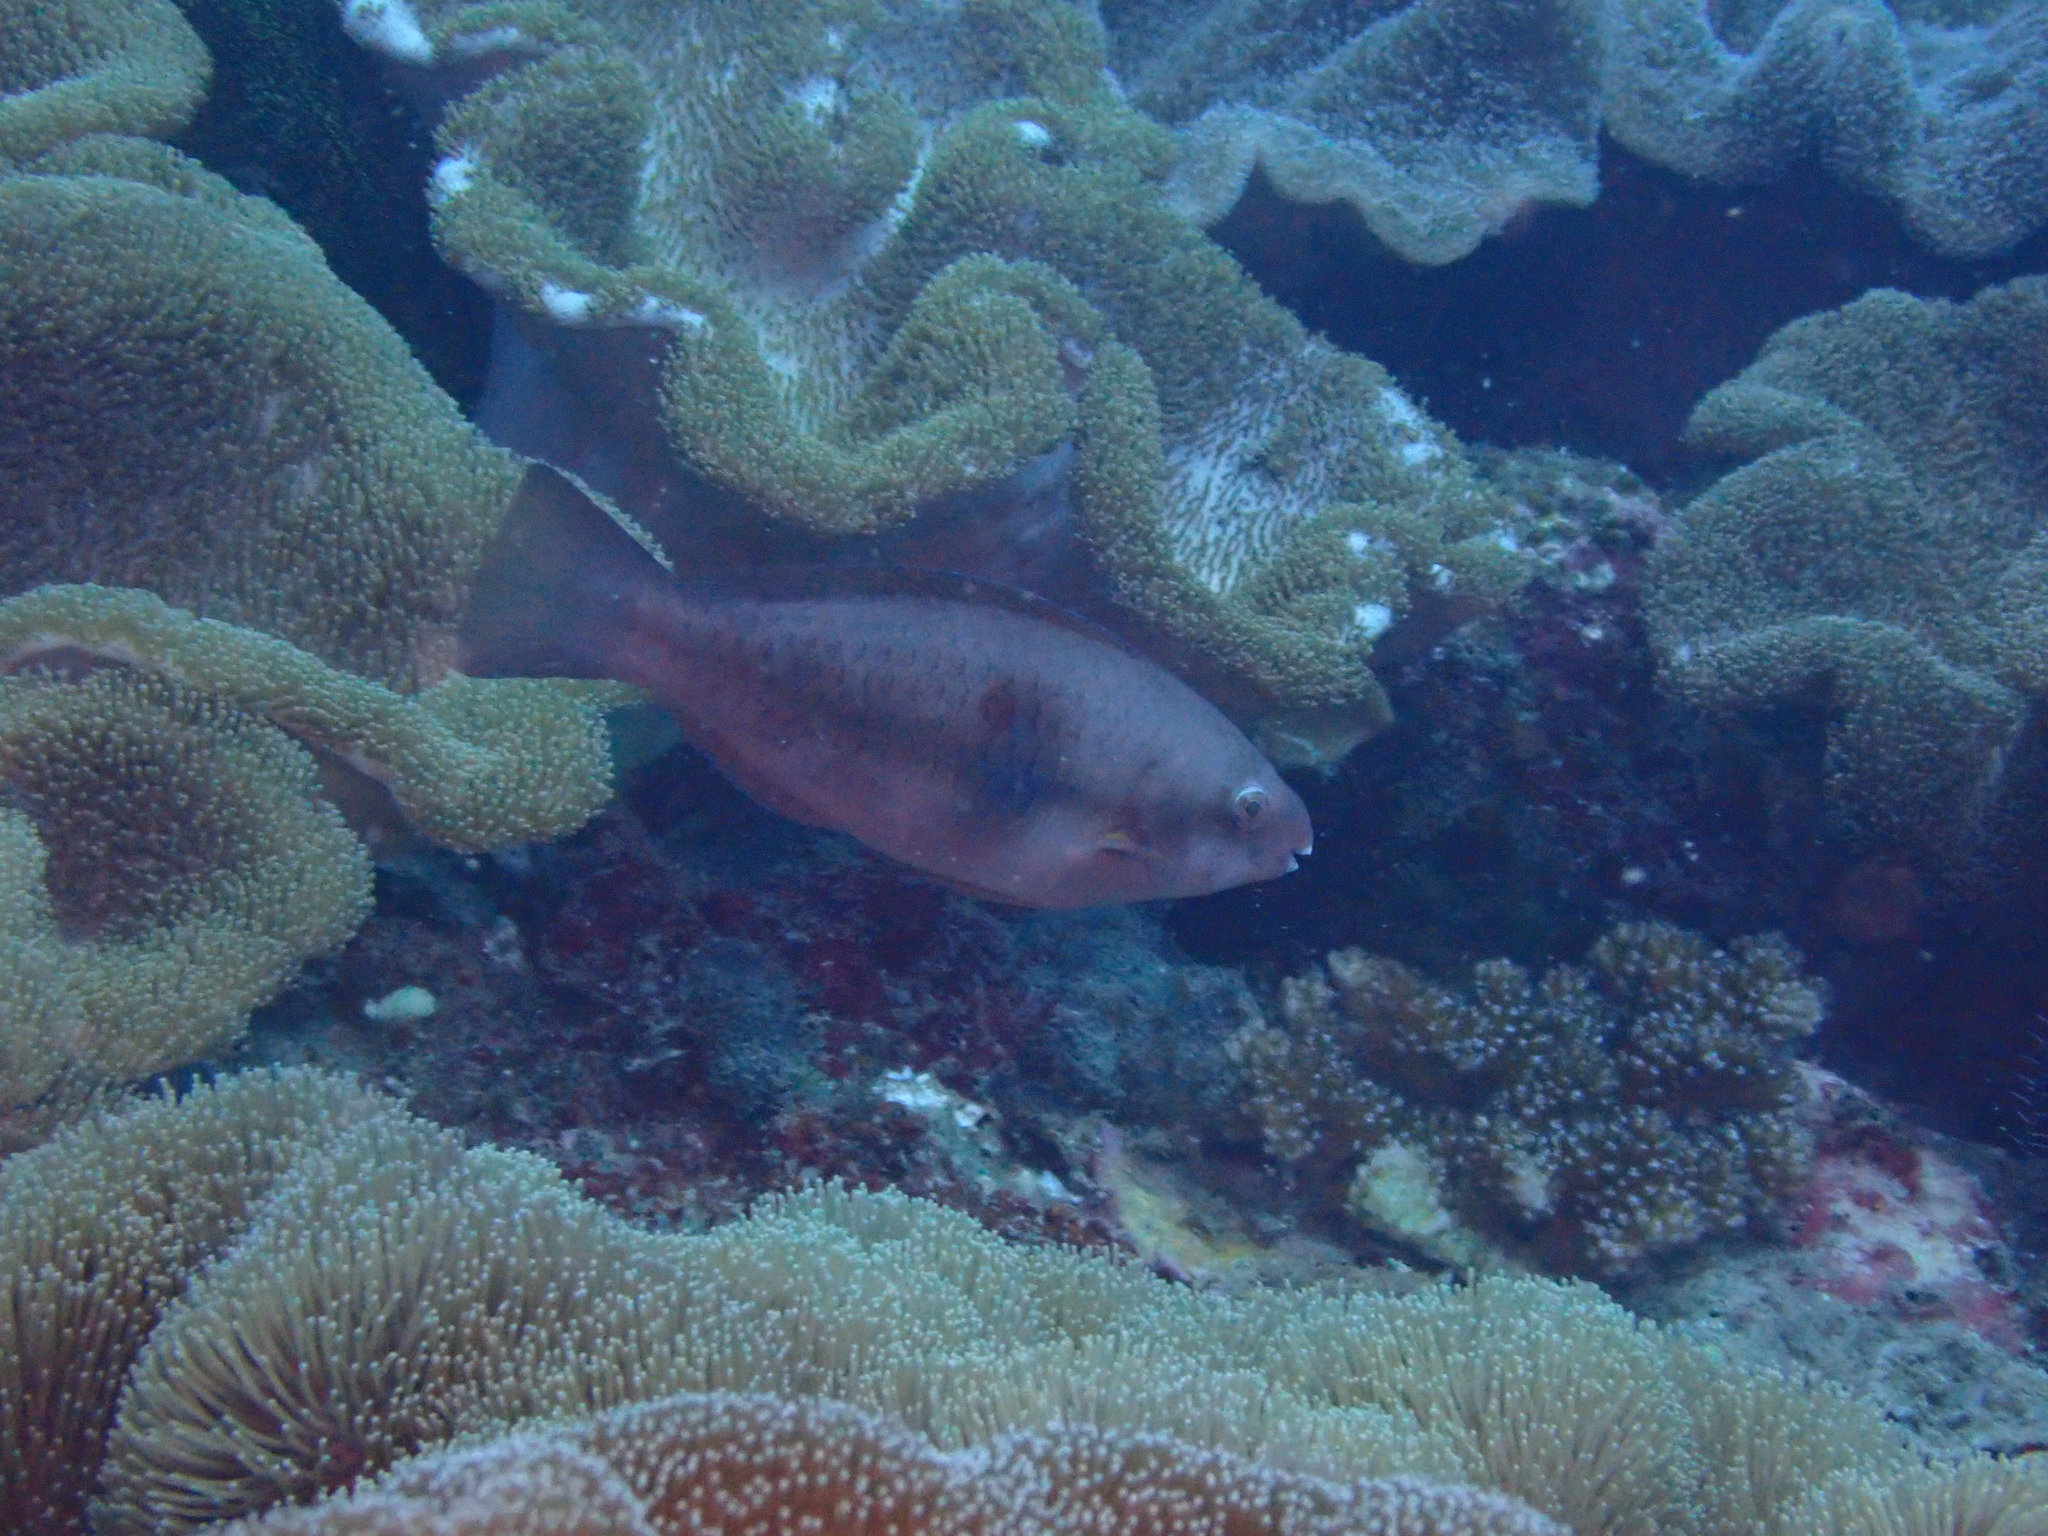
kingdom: Animalia
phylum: Chordata
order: Perciformes
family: Scaridae
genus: Scarus
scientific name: Scarus forsteni
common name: Forsten's parrotfish
